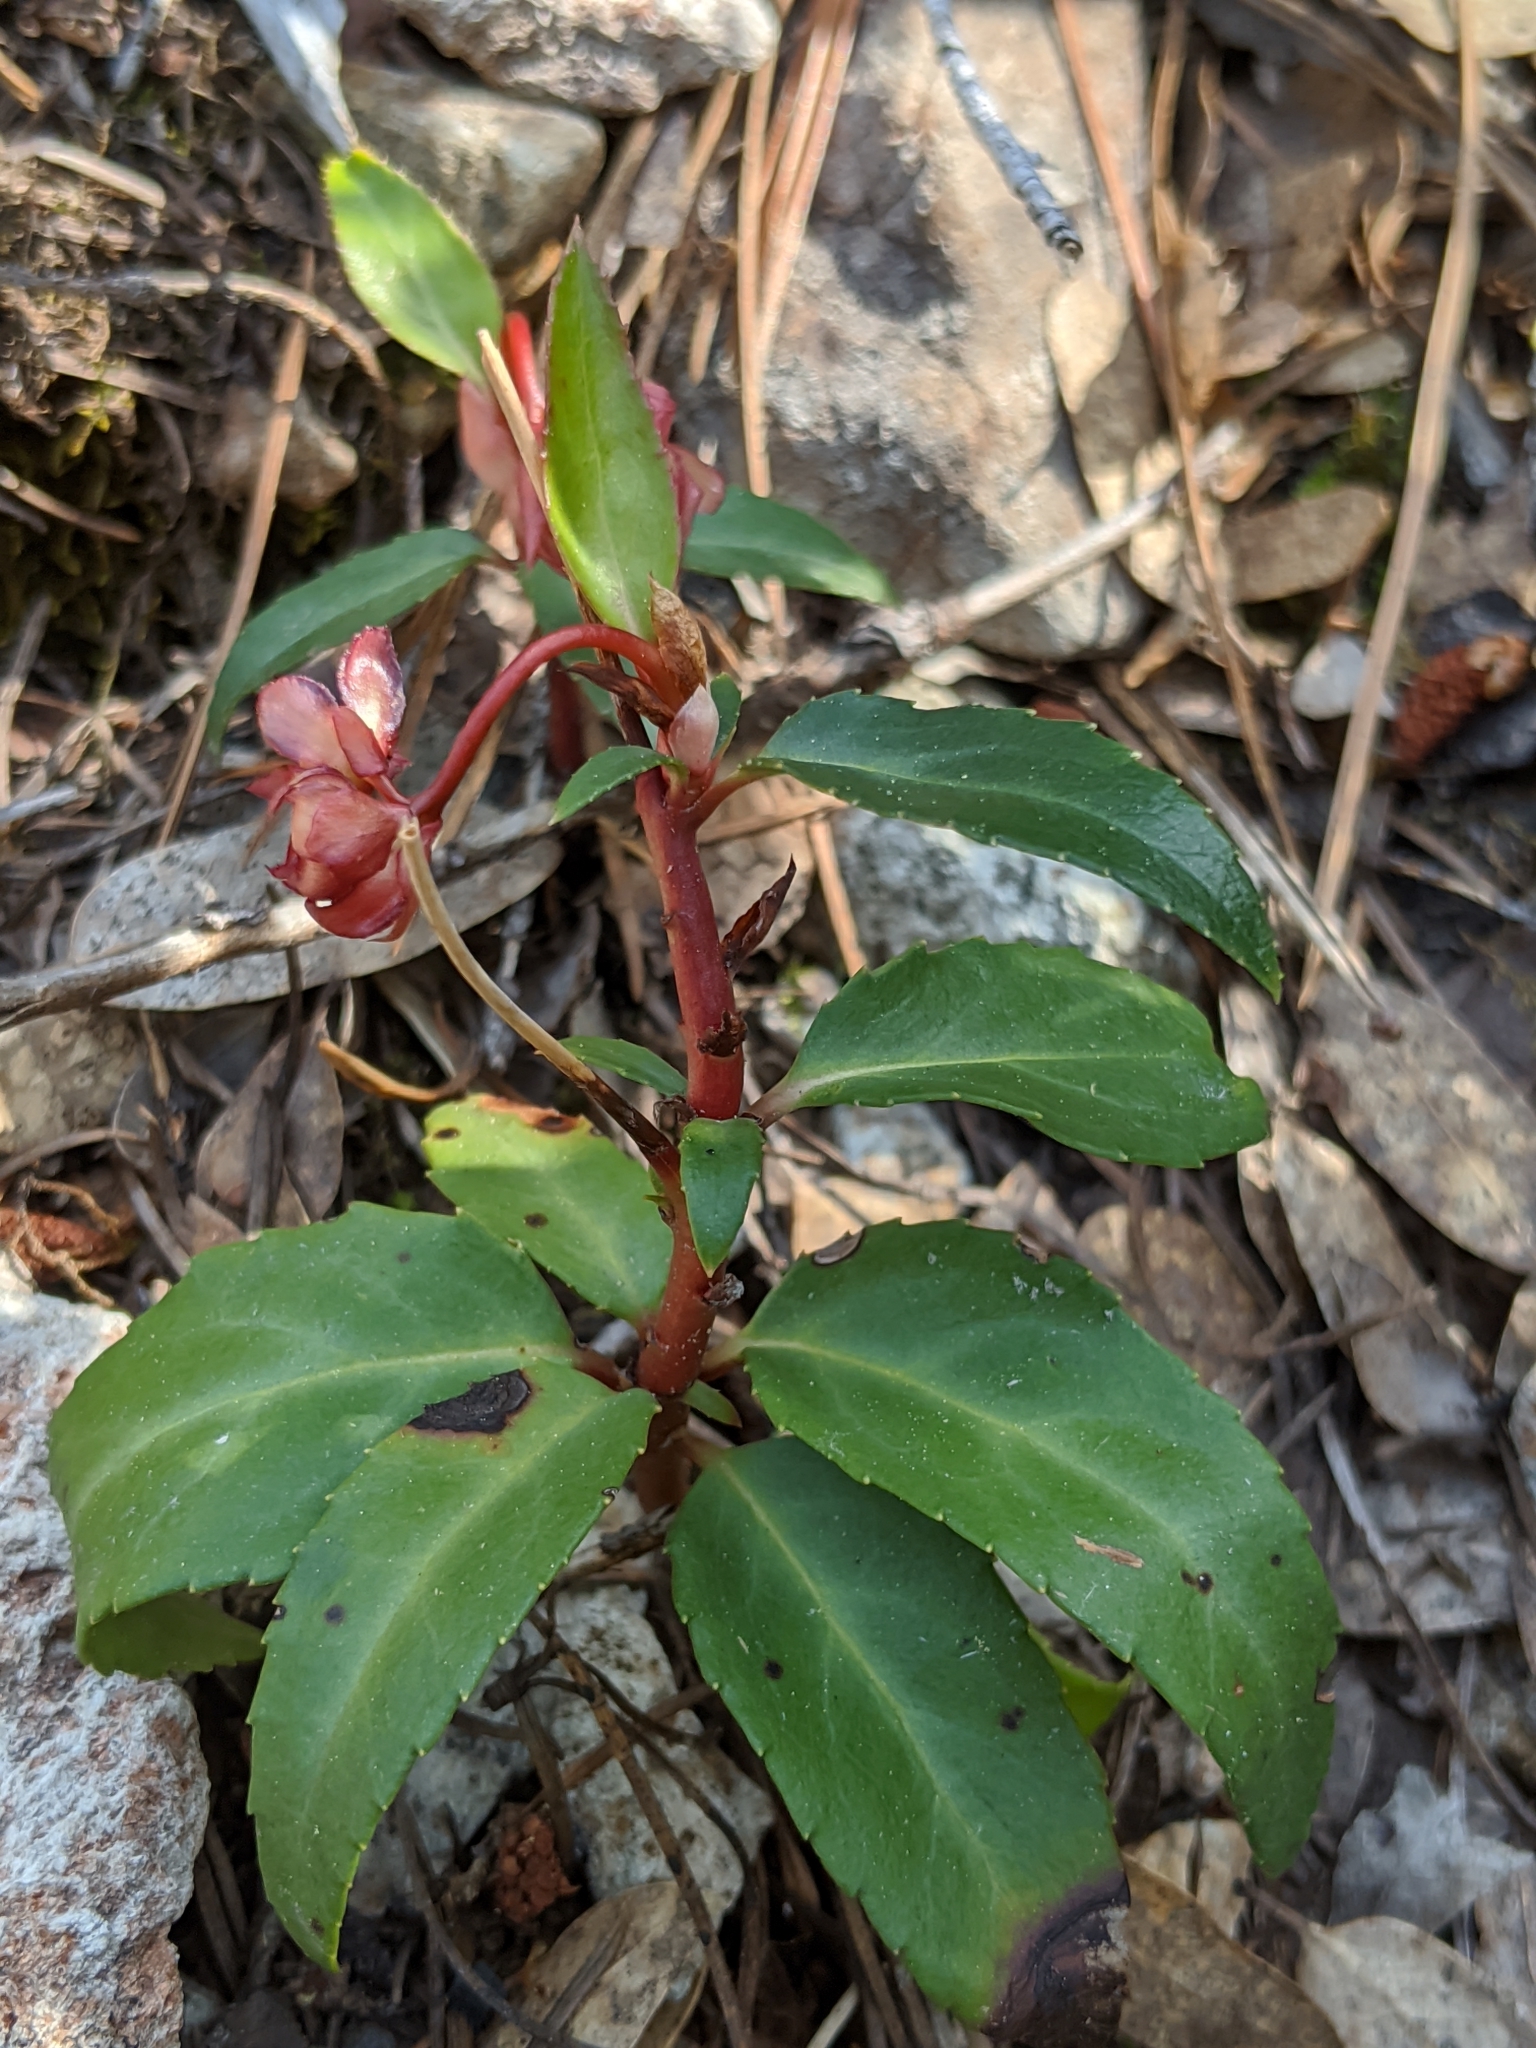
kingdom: Plantae
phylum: Tracheophyta
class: Magnoliopsida
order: Ericales
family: Ericaceae
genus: Chimaphila
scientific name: Chimaphila umbellata
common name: Pipsissewa
